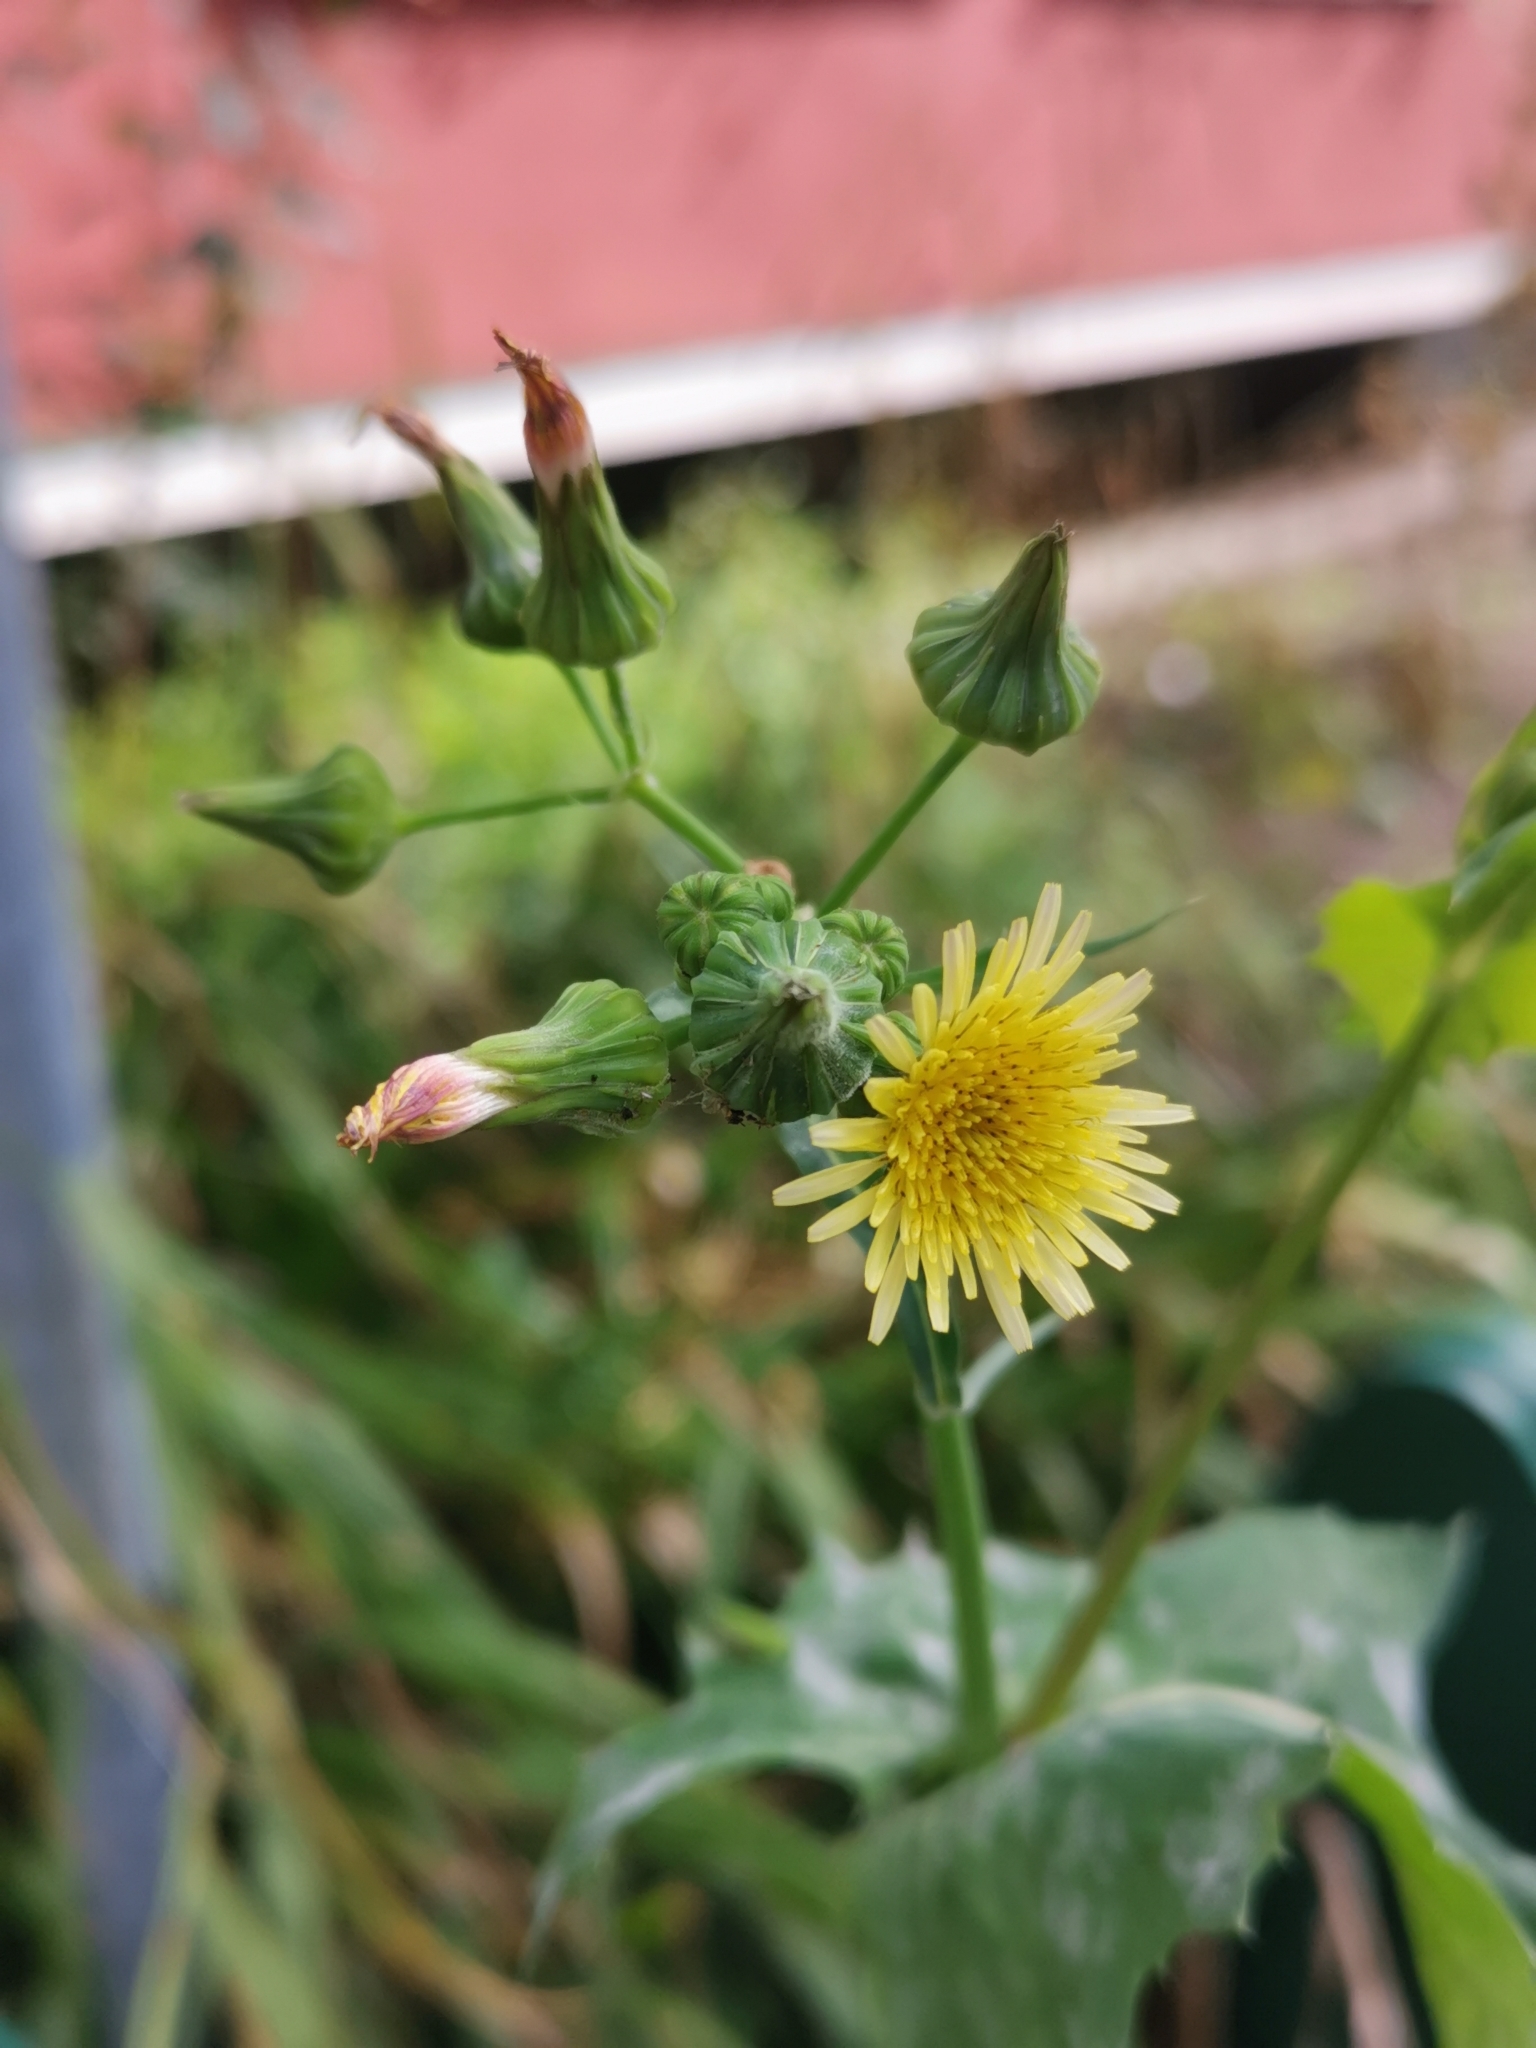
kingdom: Plantae
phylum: Tracheophyta
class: Magnoliopsida
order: Asterales
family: Asteraceae
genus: Sonchus
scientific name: Sonchus oleraceus
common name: Common sowthistle
